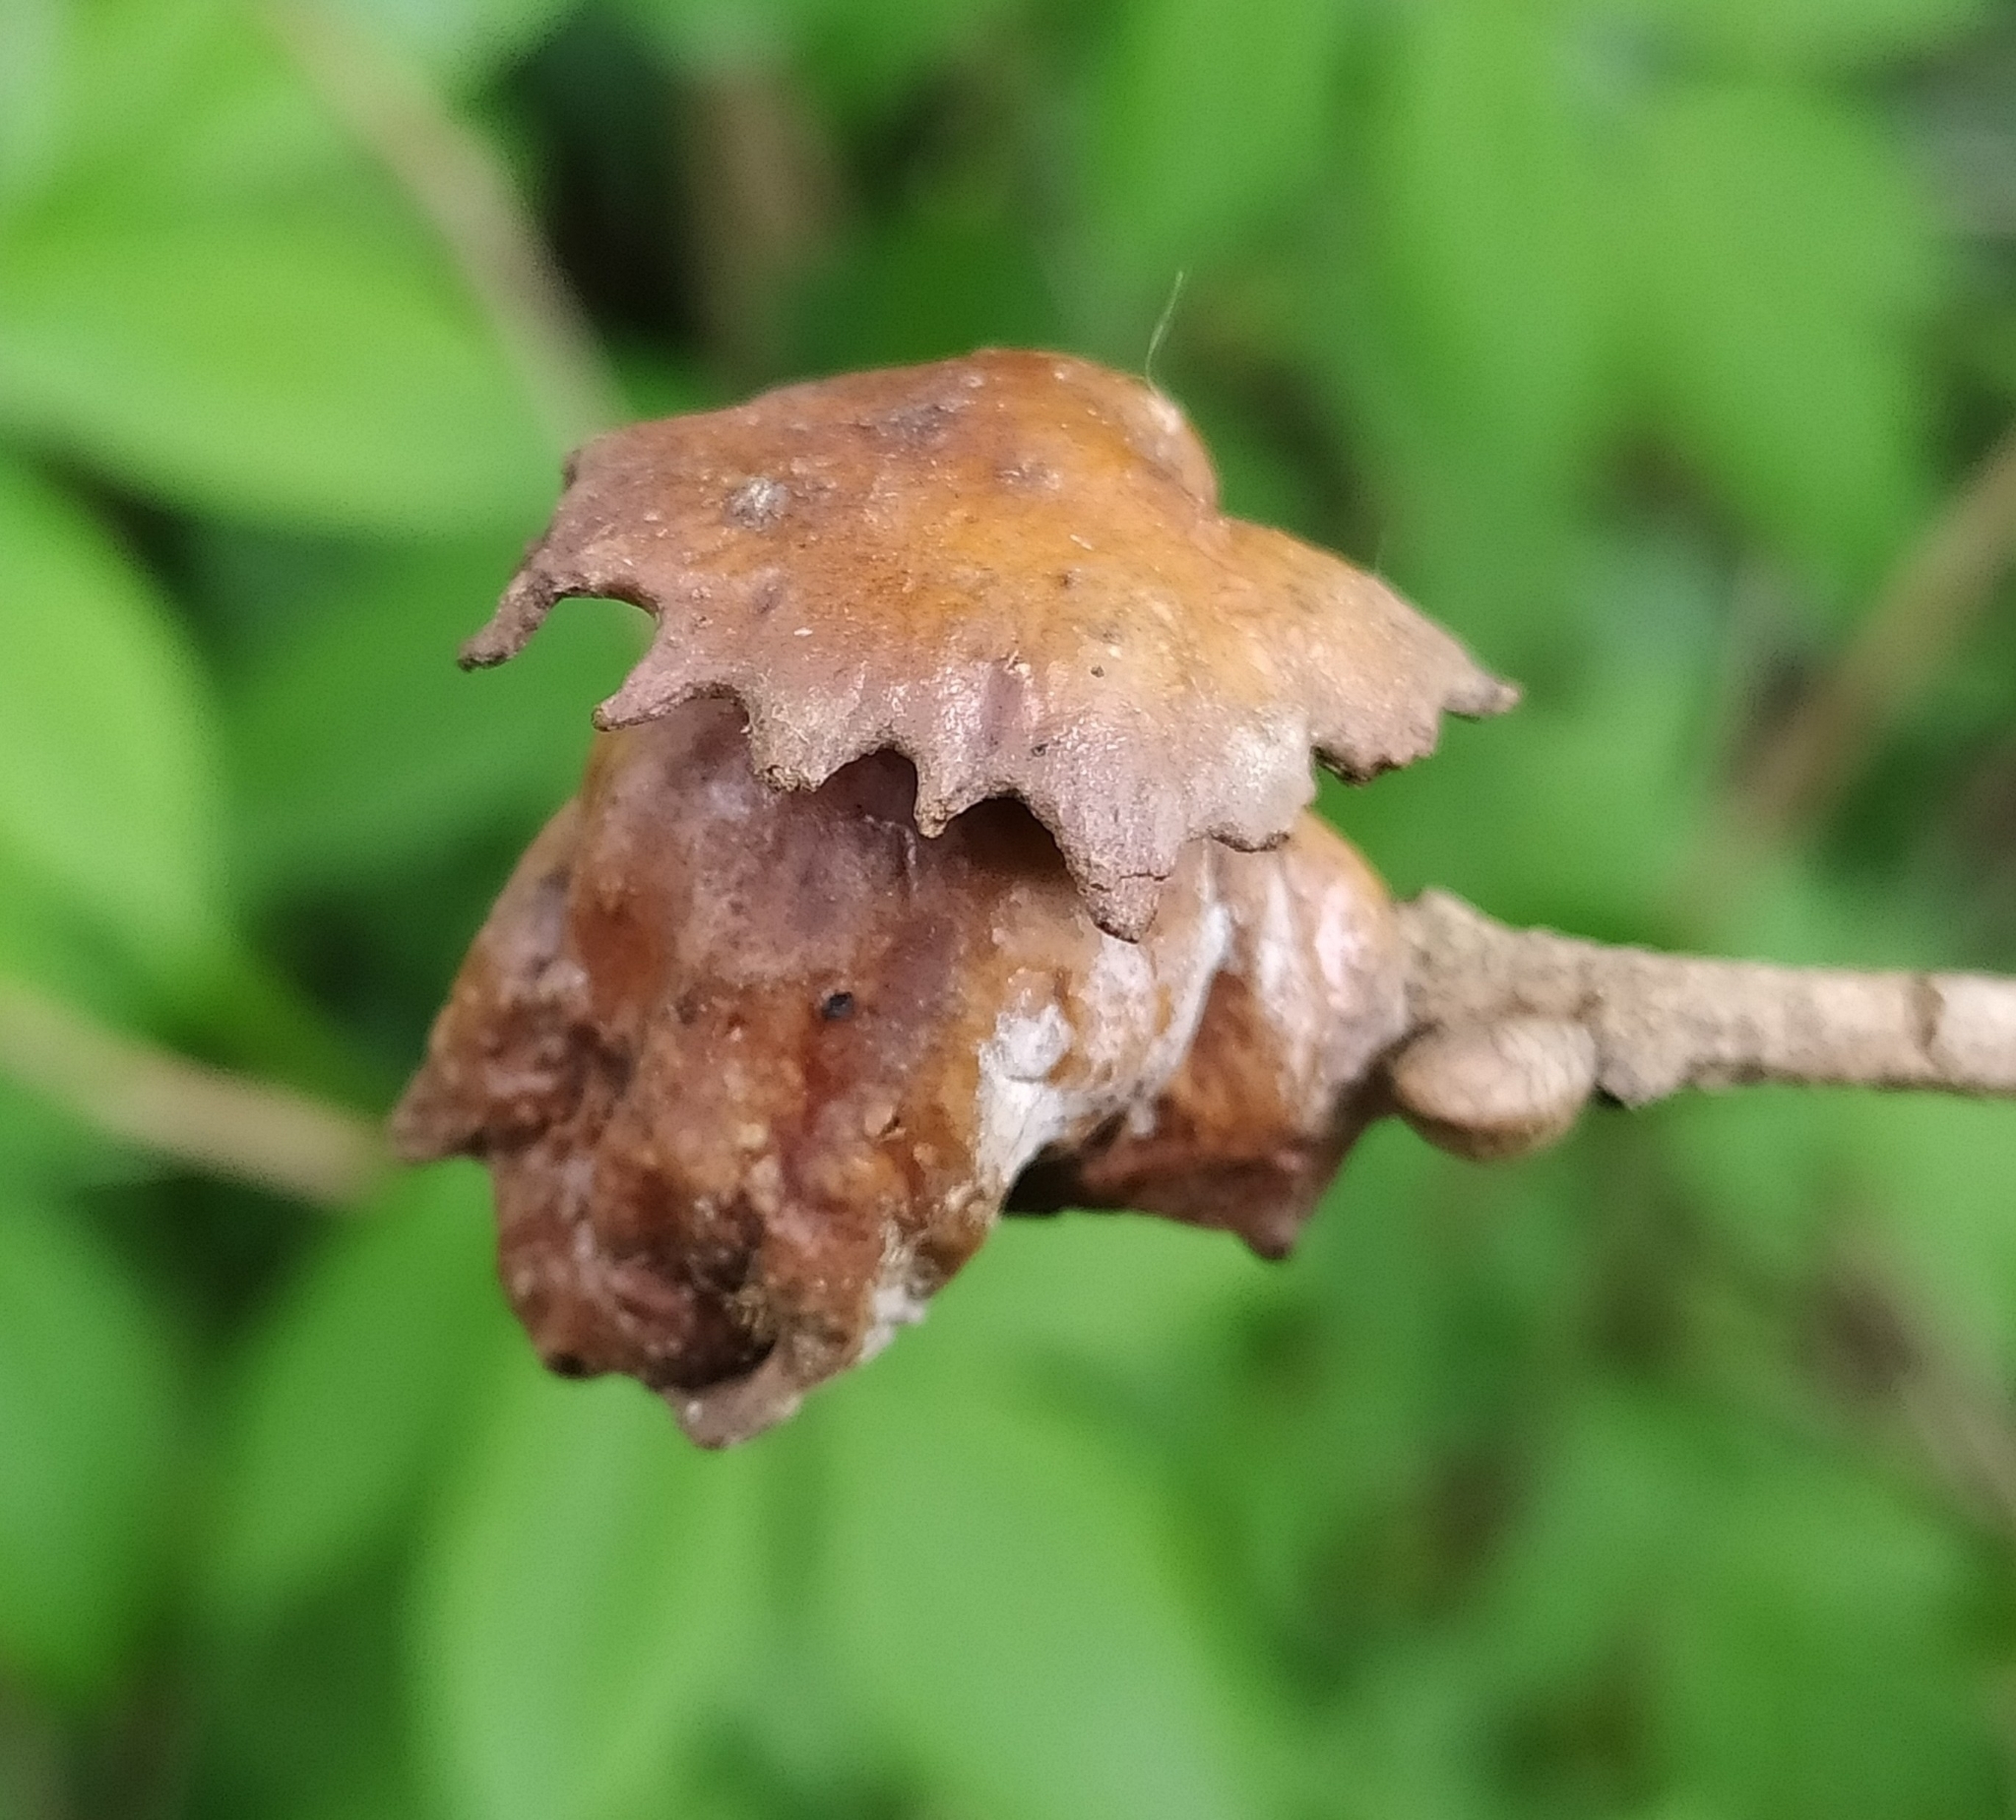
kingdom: Animalia
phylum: Arthropoda
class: Insecta
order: Hymenoptera
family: Cynipidae
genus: Andricus
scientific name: Andricus dentimitratus
